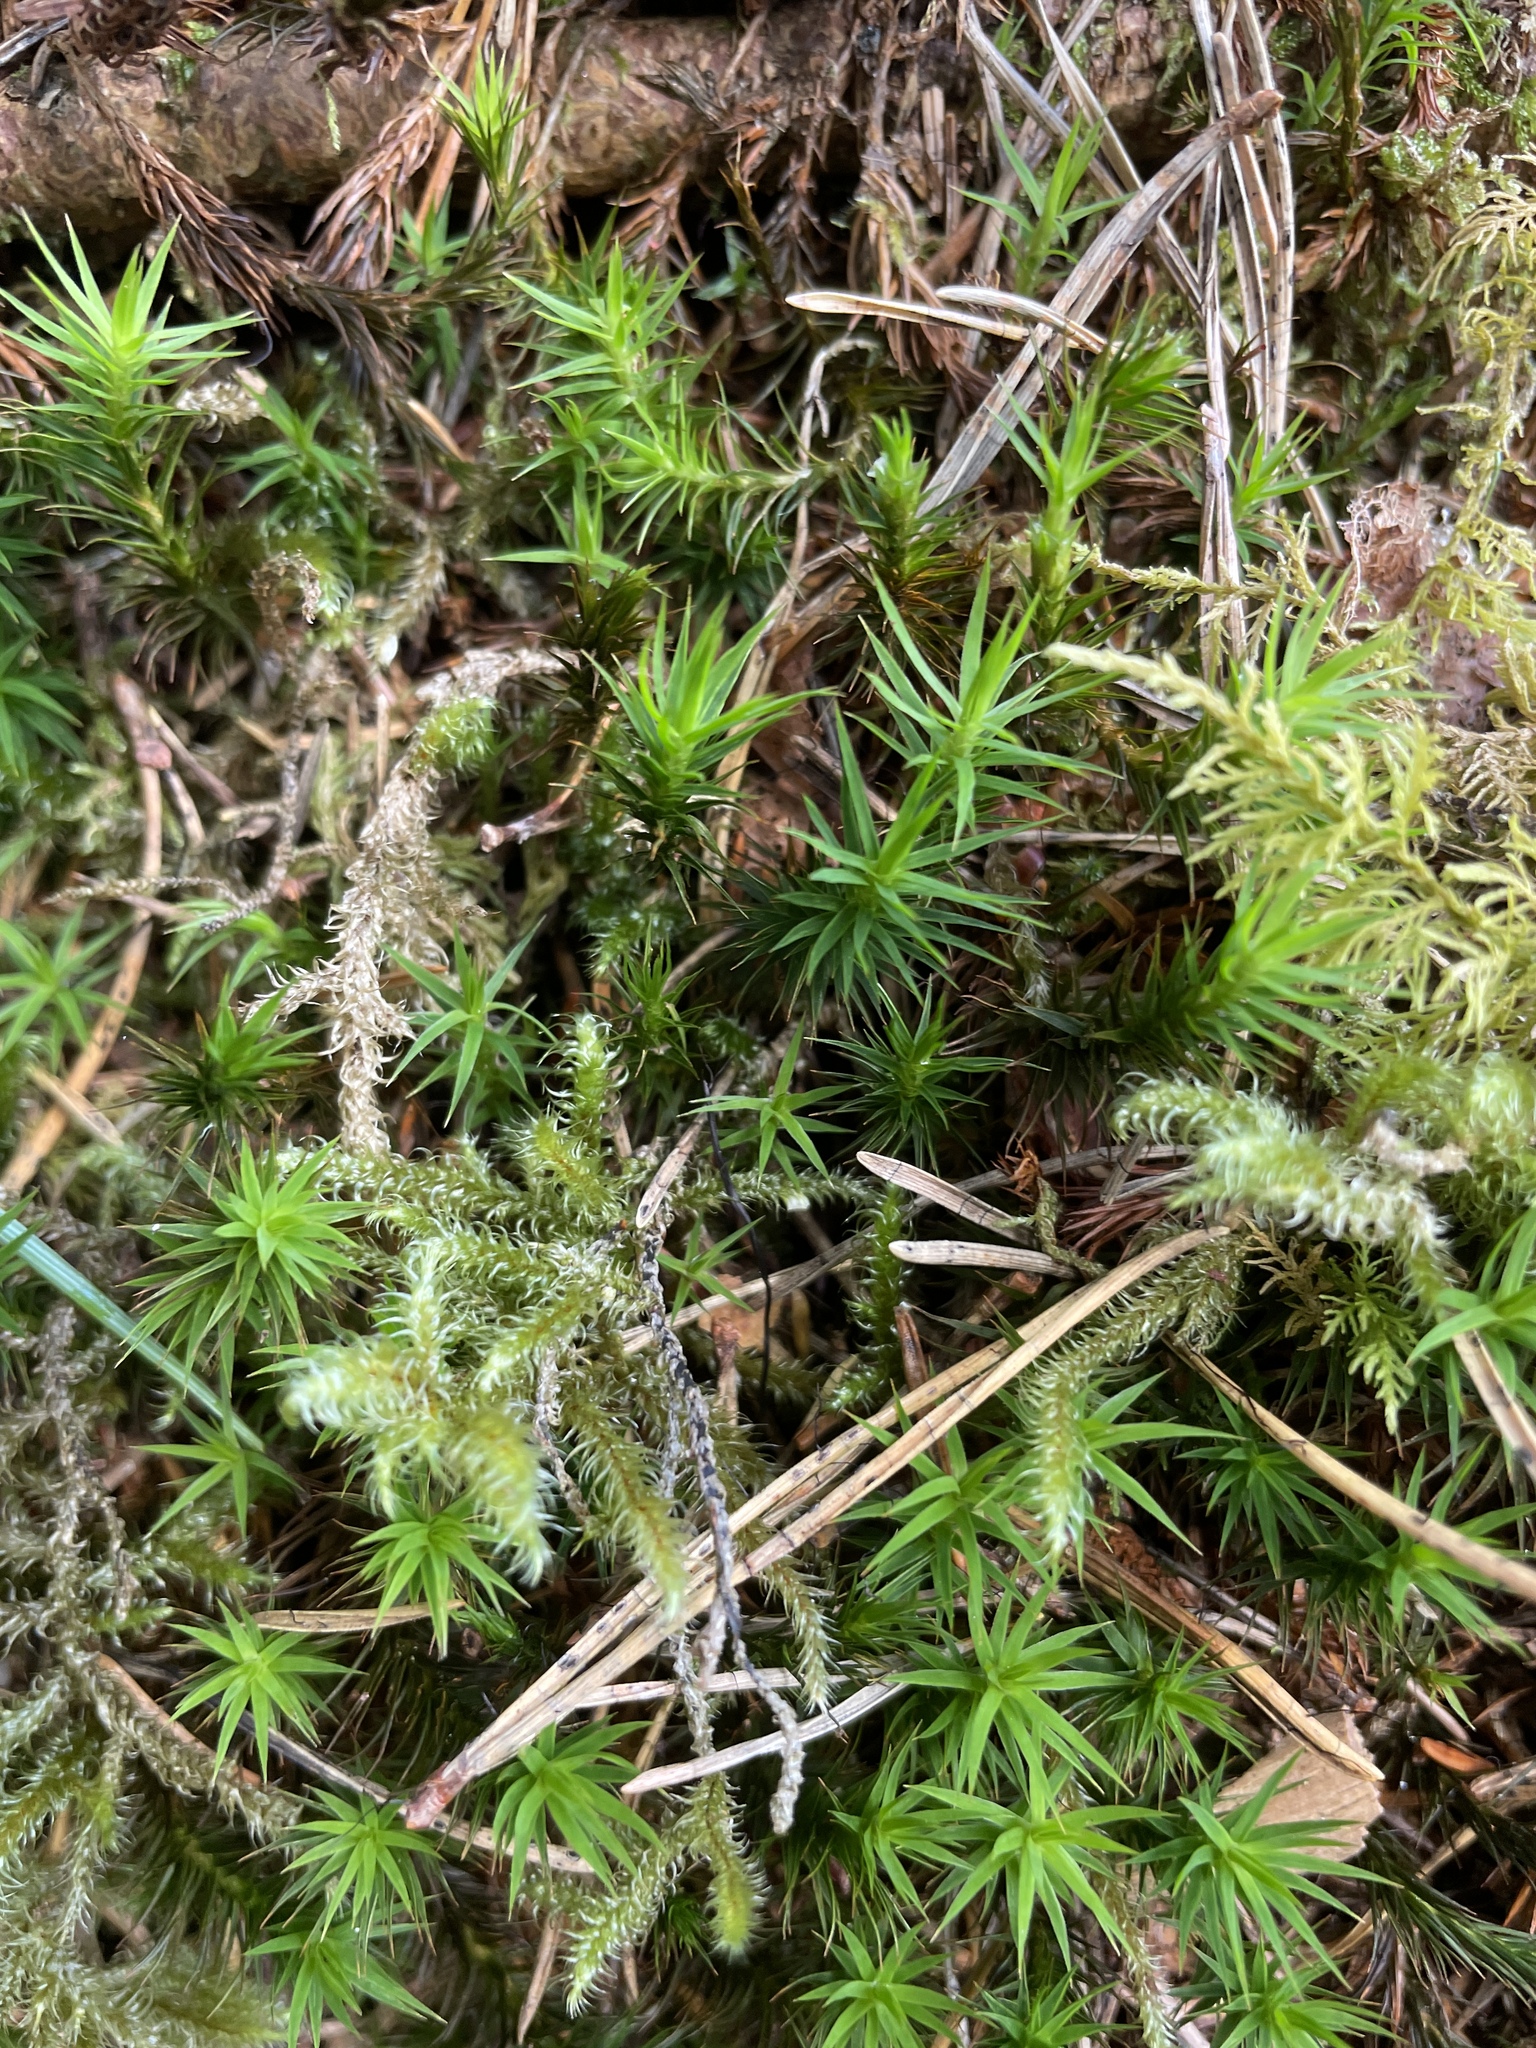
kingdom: Plantae
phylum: Bryophyta
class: Polytrichopsida
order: Polytrichales
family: Polytrichaceae
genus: Polytrichum
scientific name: Polytrichum formosum
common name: Bank haircap moss
